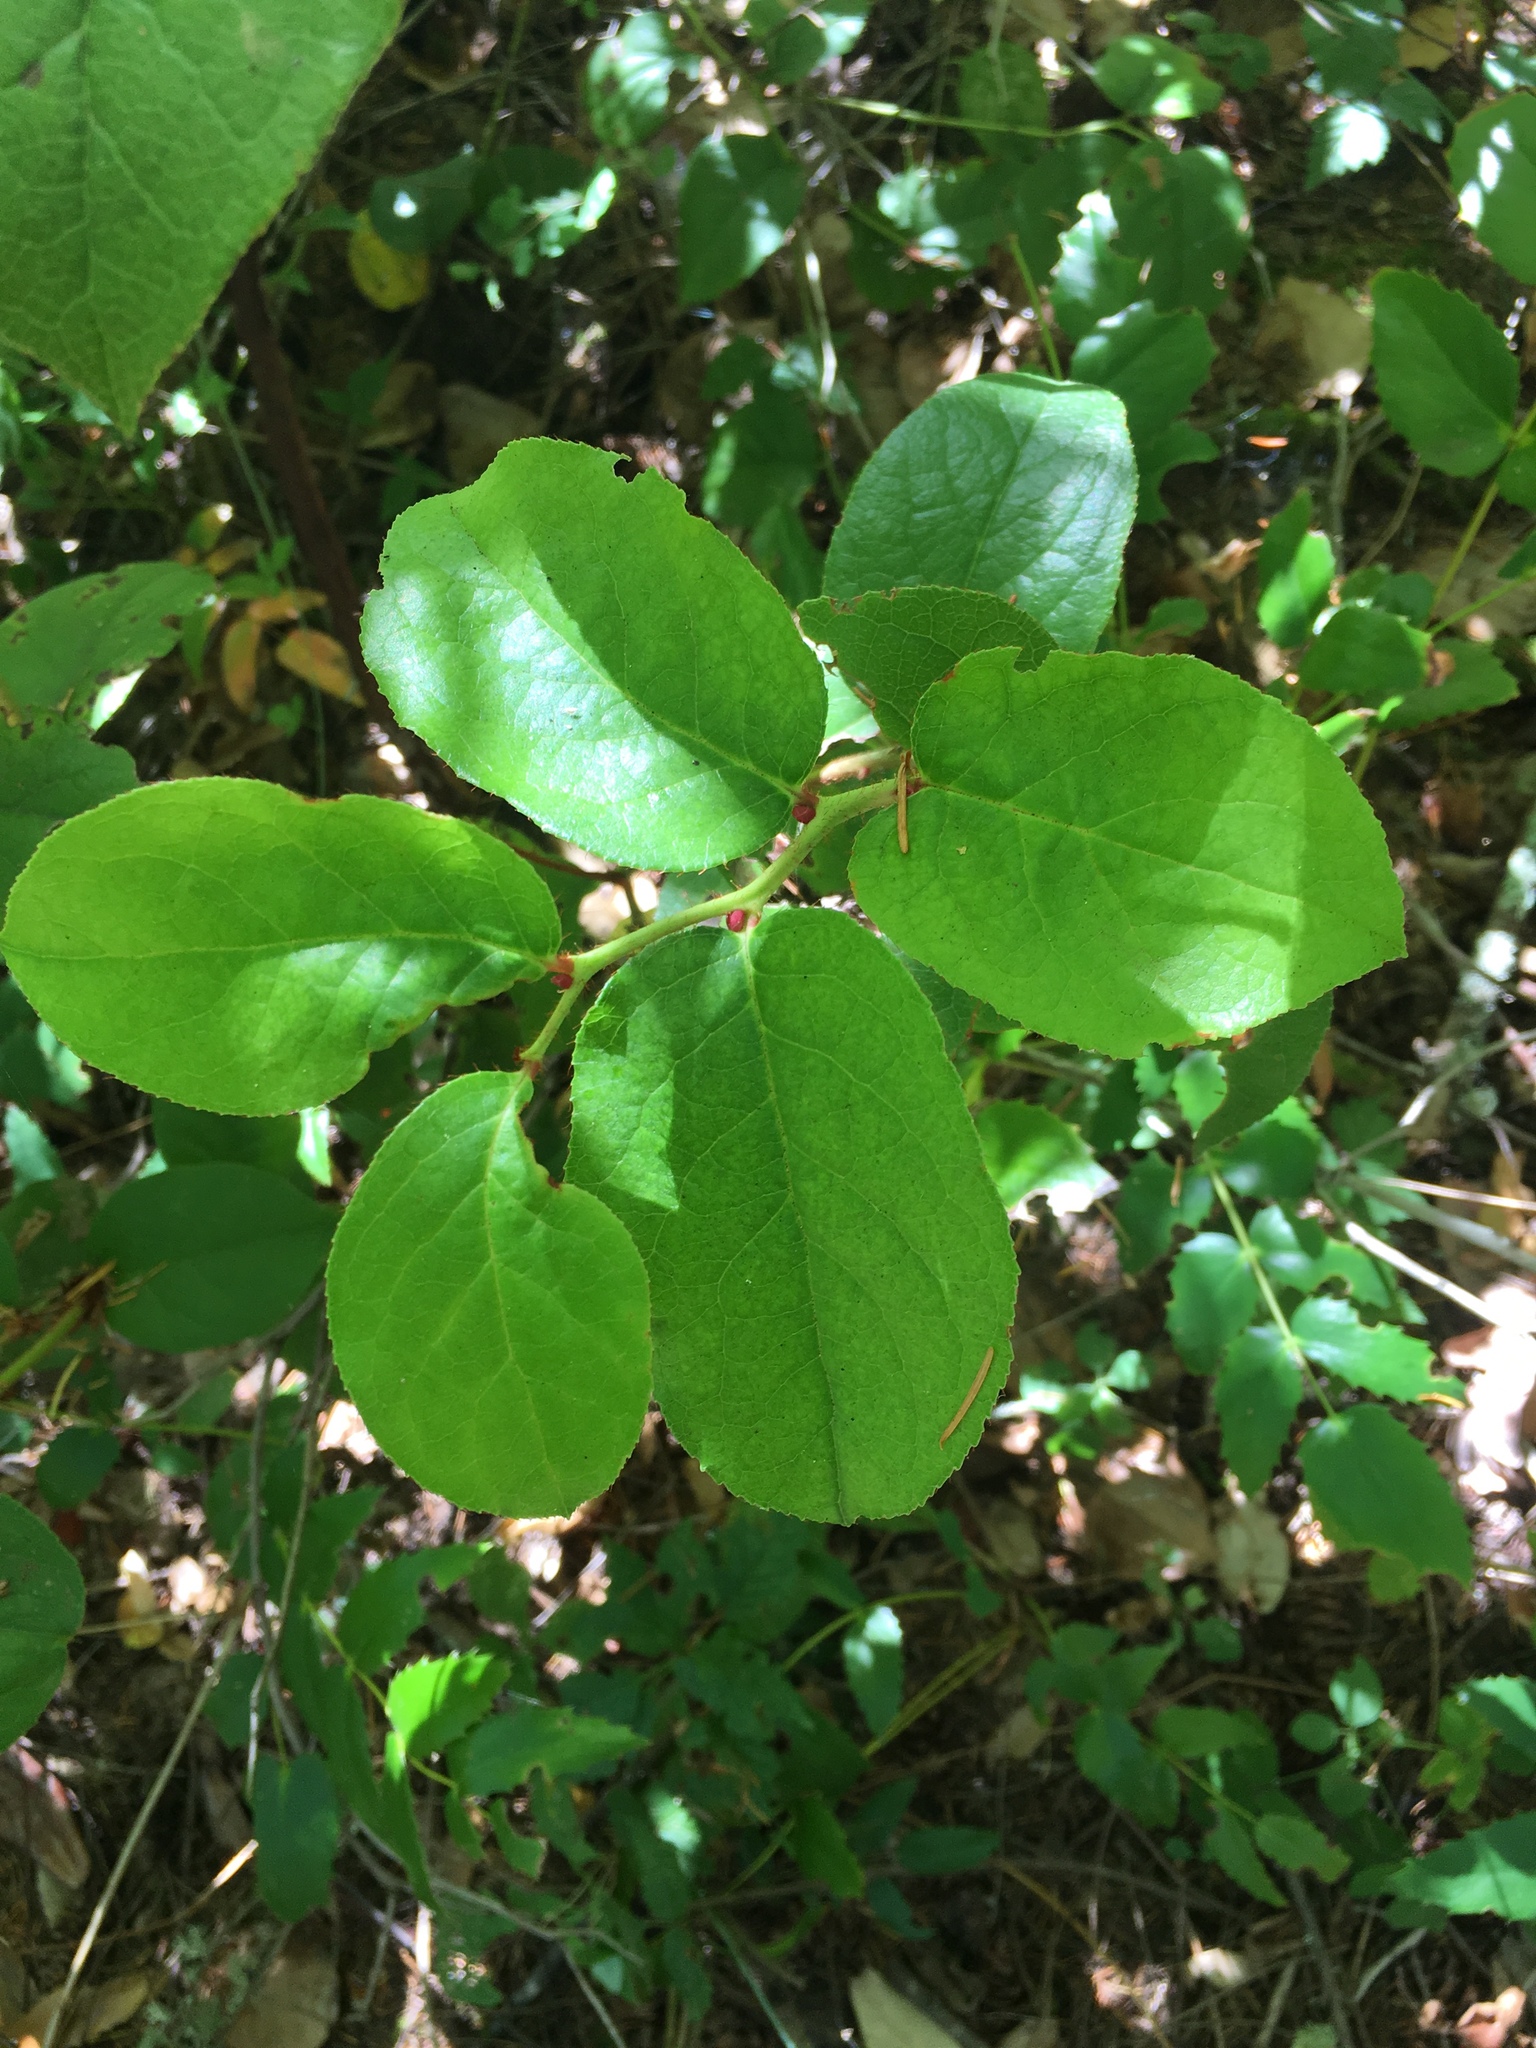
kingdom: Plantae
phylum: Tracheophyta
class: Magnoliopsida
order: Ericales
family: Ericaceae
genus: Gaultheria
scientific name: Gaultheria shallon
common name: Shallon
